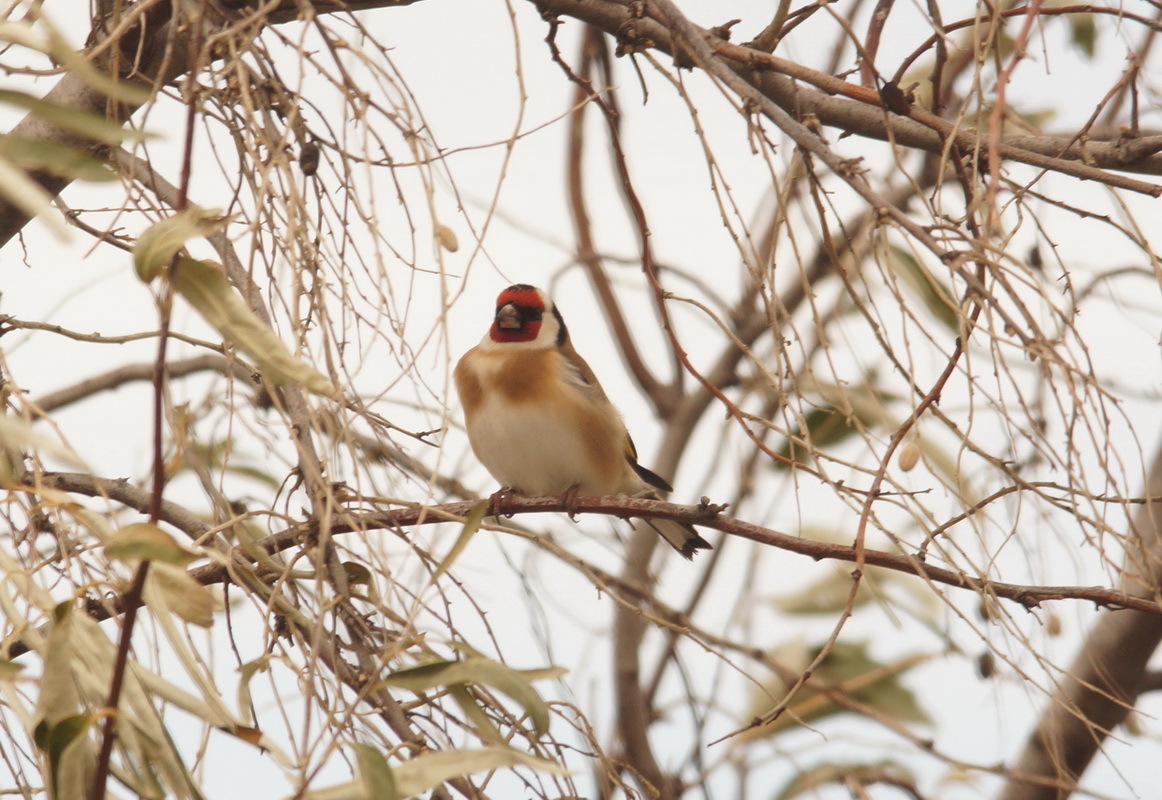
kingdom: Animalia
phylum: Chordata
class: Aves
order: Passeriformes
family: Fringillidae
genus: Carduelis
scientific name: Carduelis carduelis
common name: European goldfinch
